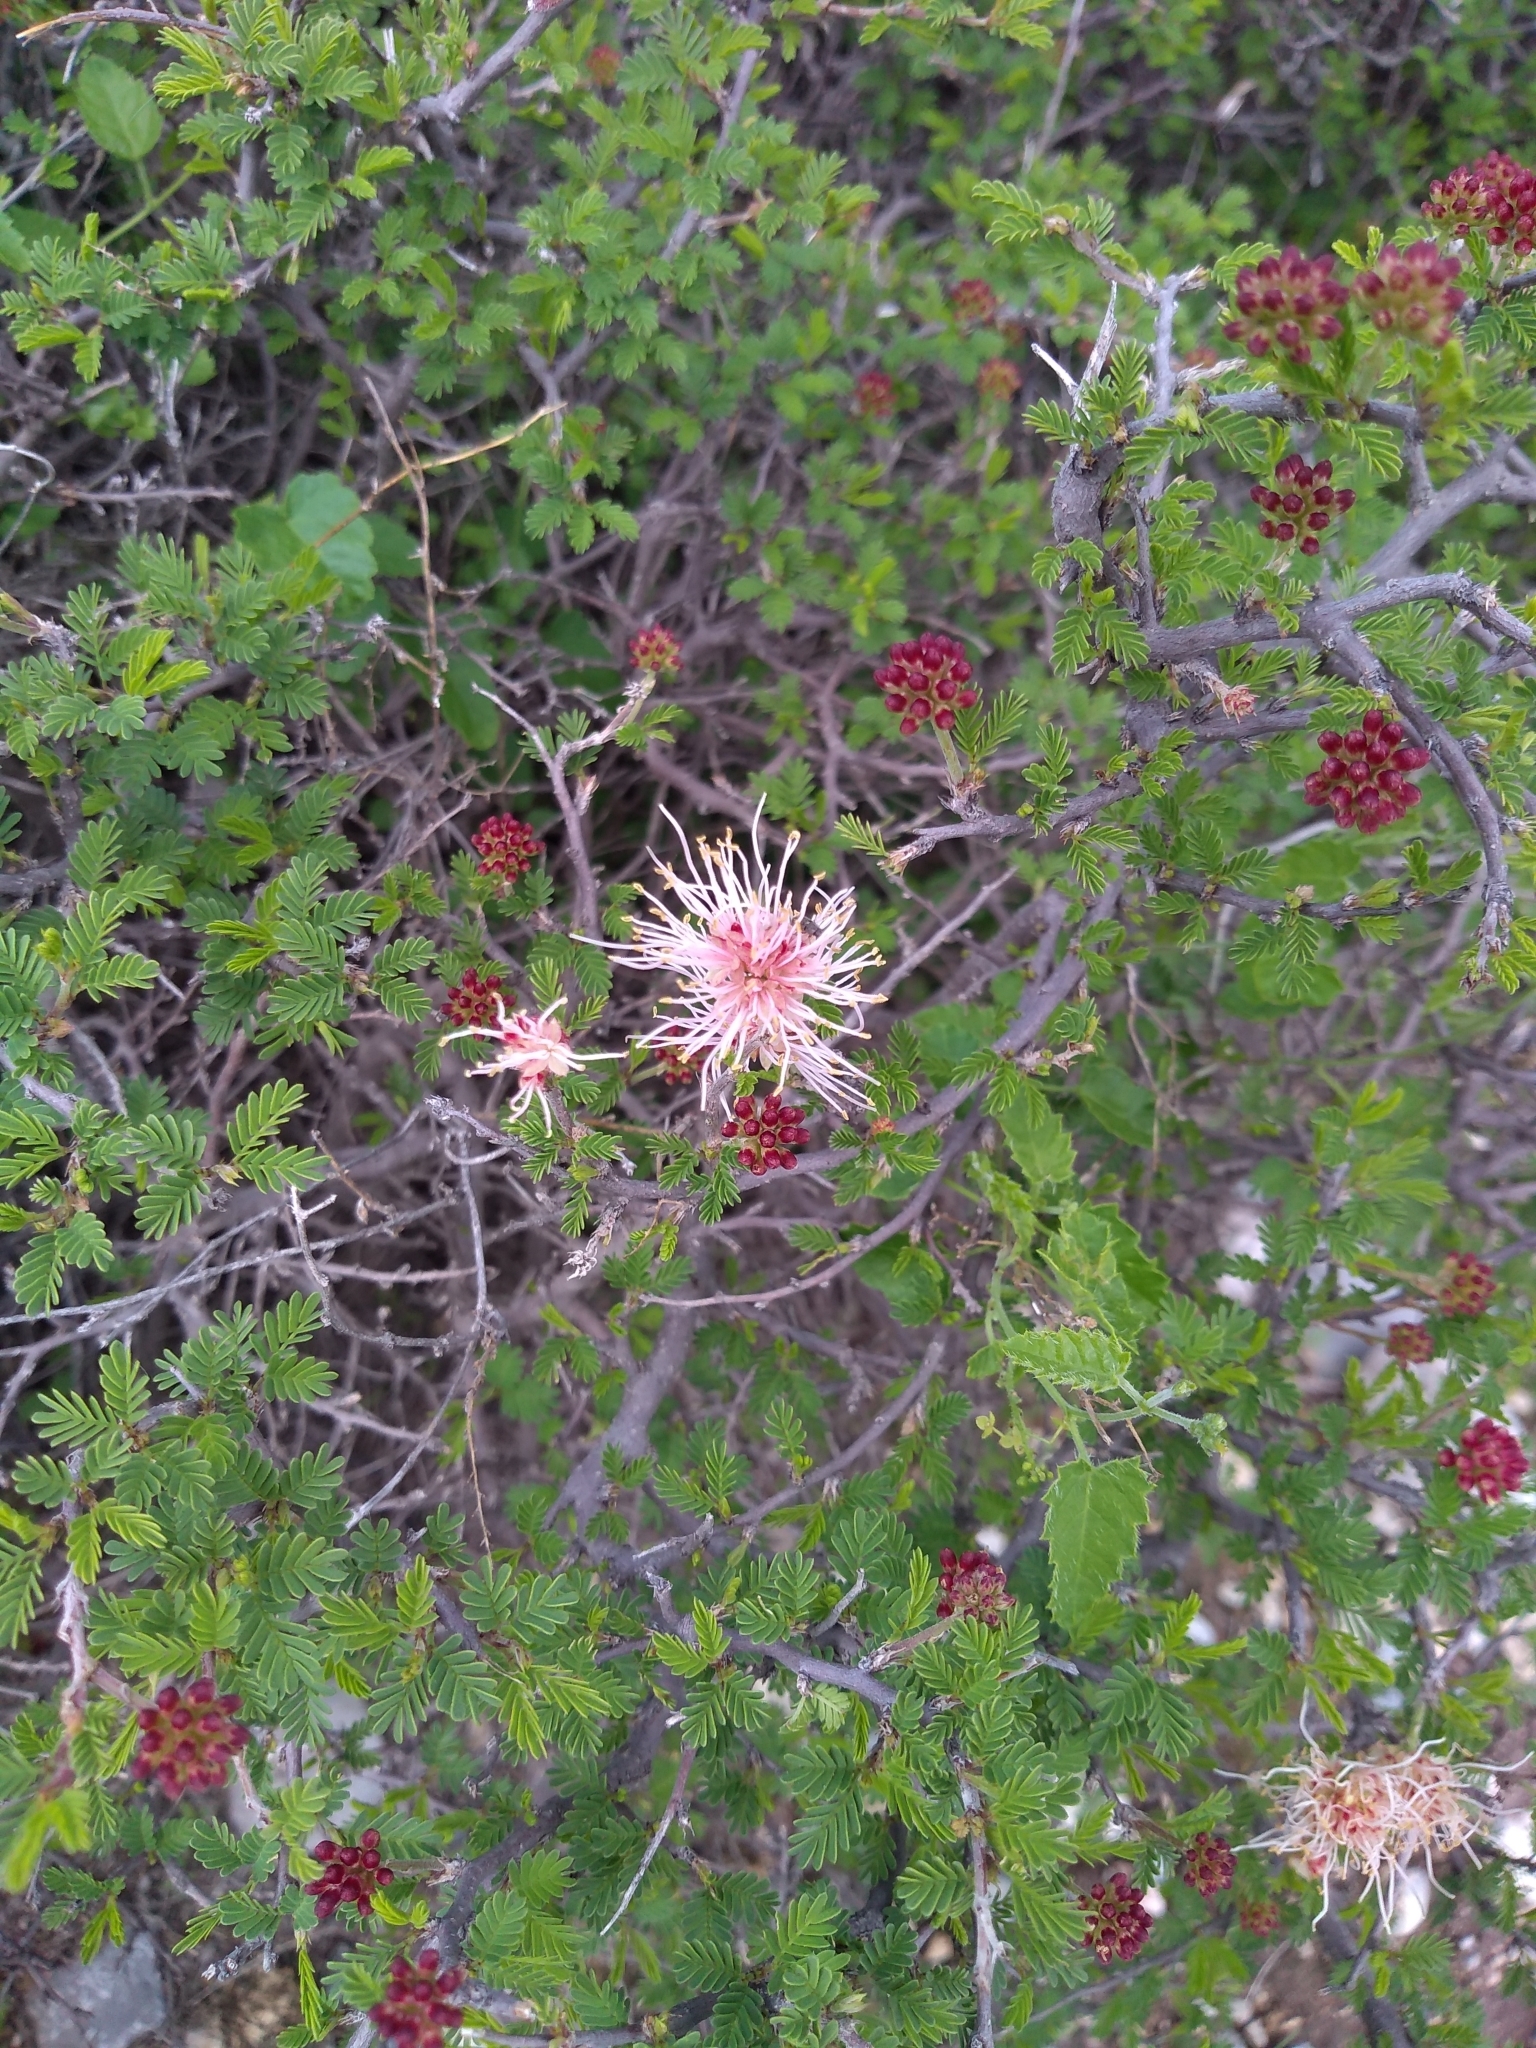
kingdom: Plantae
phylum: Tracheophyta
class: Magnoliopsida
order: Fabales
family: Fabaceae
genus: Calliandra
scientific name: Calliandra eriophylla
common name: Fairy-duster
